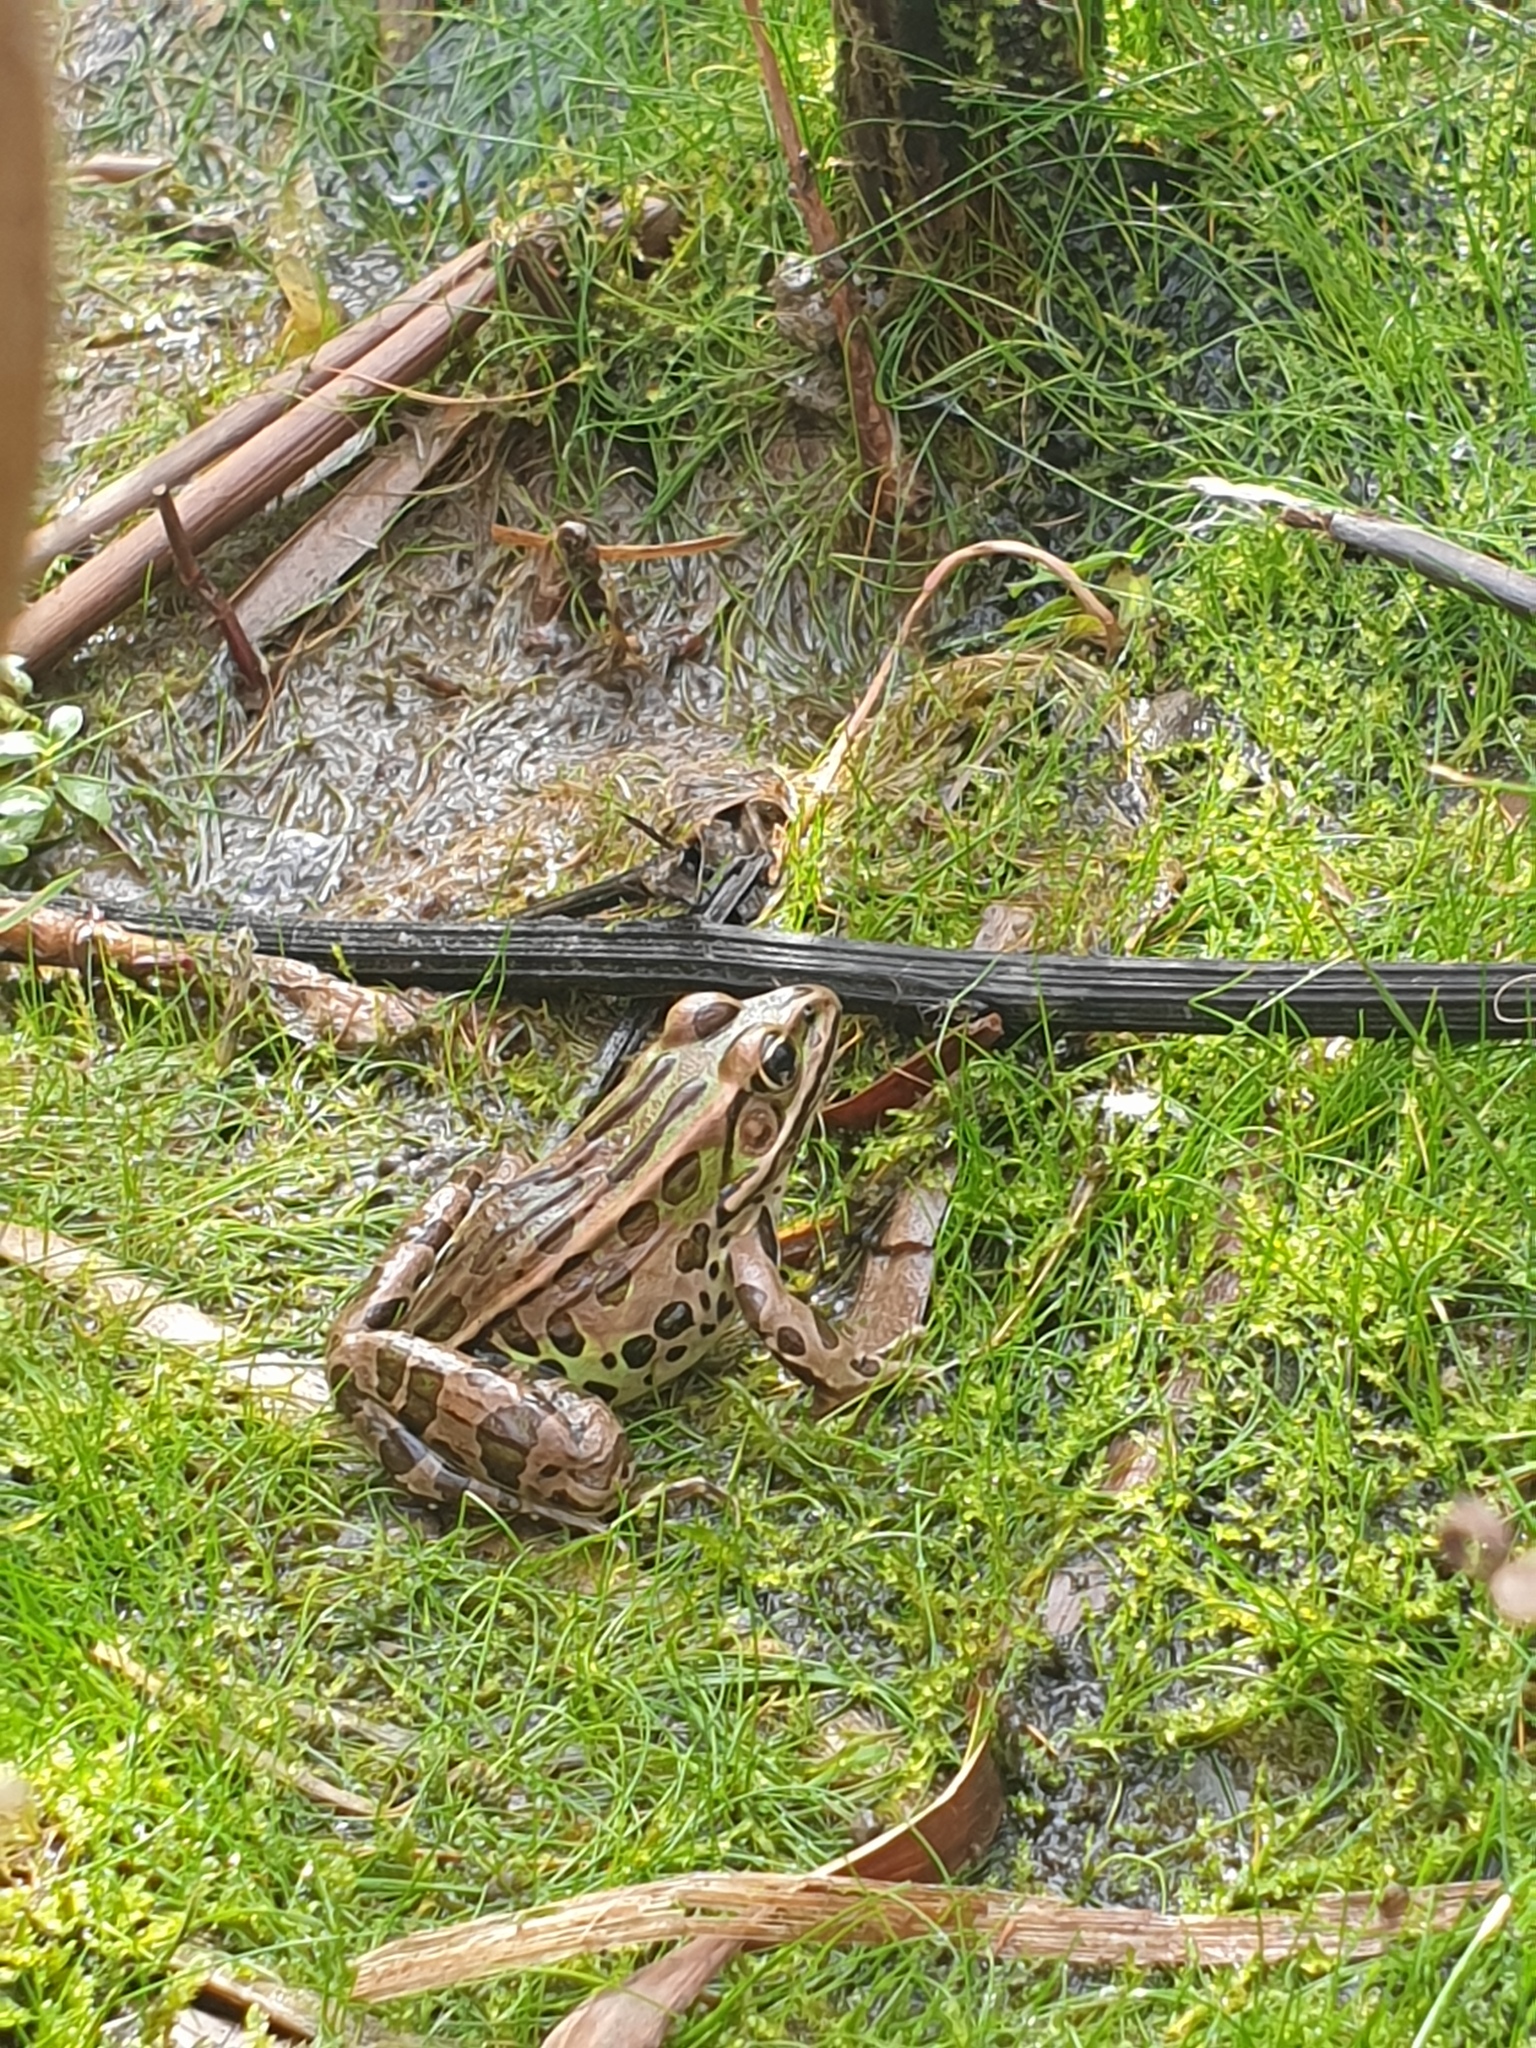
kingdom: Animalia
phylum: Chordata
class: Amphibia
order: Anura
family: Ranidae
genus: Lithobates
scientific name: Lithobates pipiens
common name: Northern leopard frog
